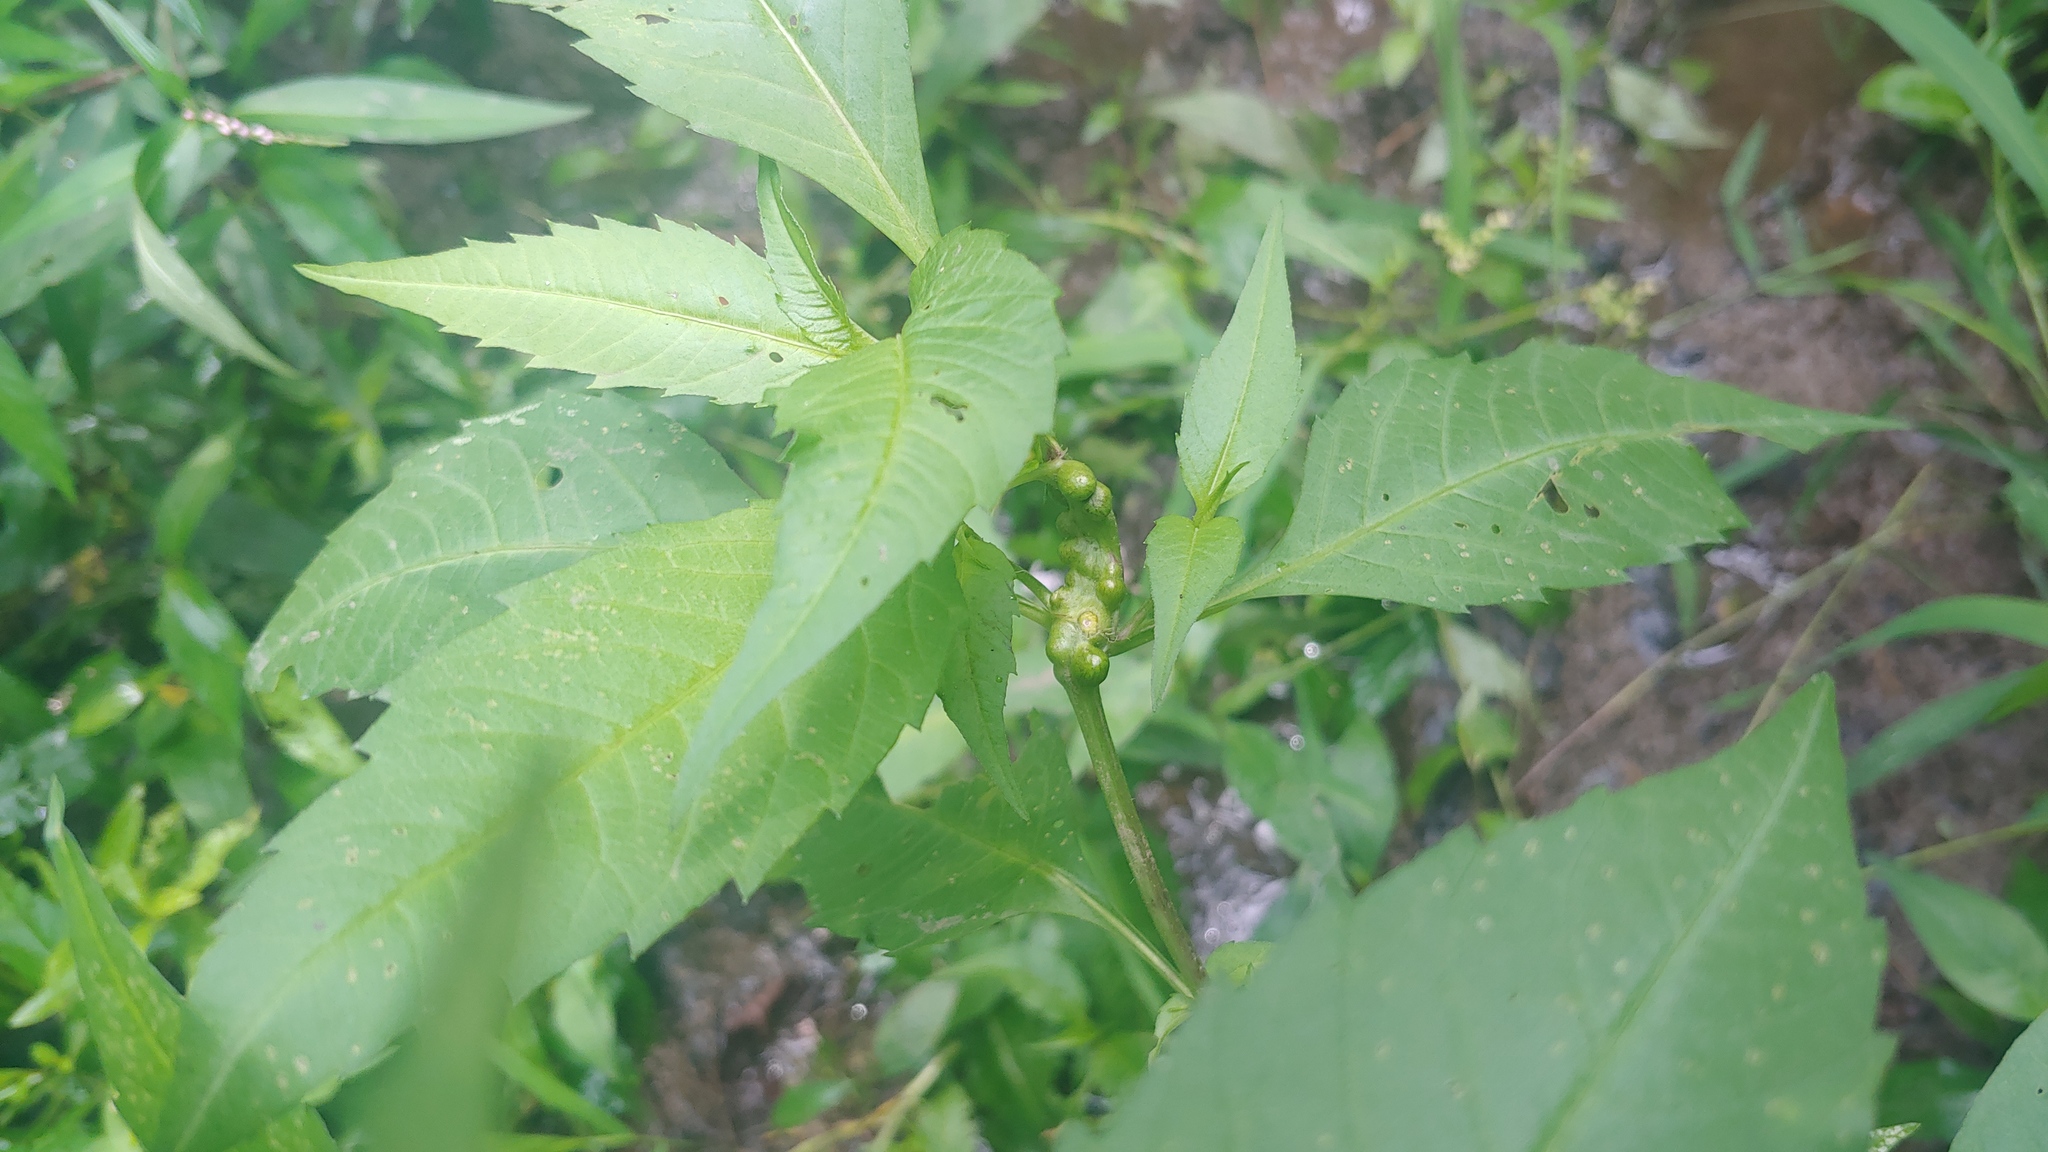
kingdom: Animalia
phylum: Arthropoda
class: Insecta
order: Diptera
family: Cecidomyiidae
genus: Asphondylia
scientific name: Asphondylia ovata
